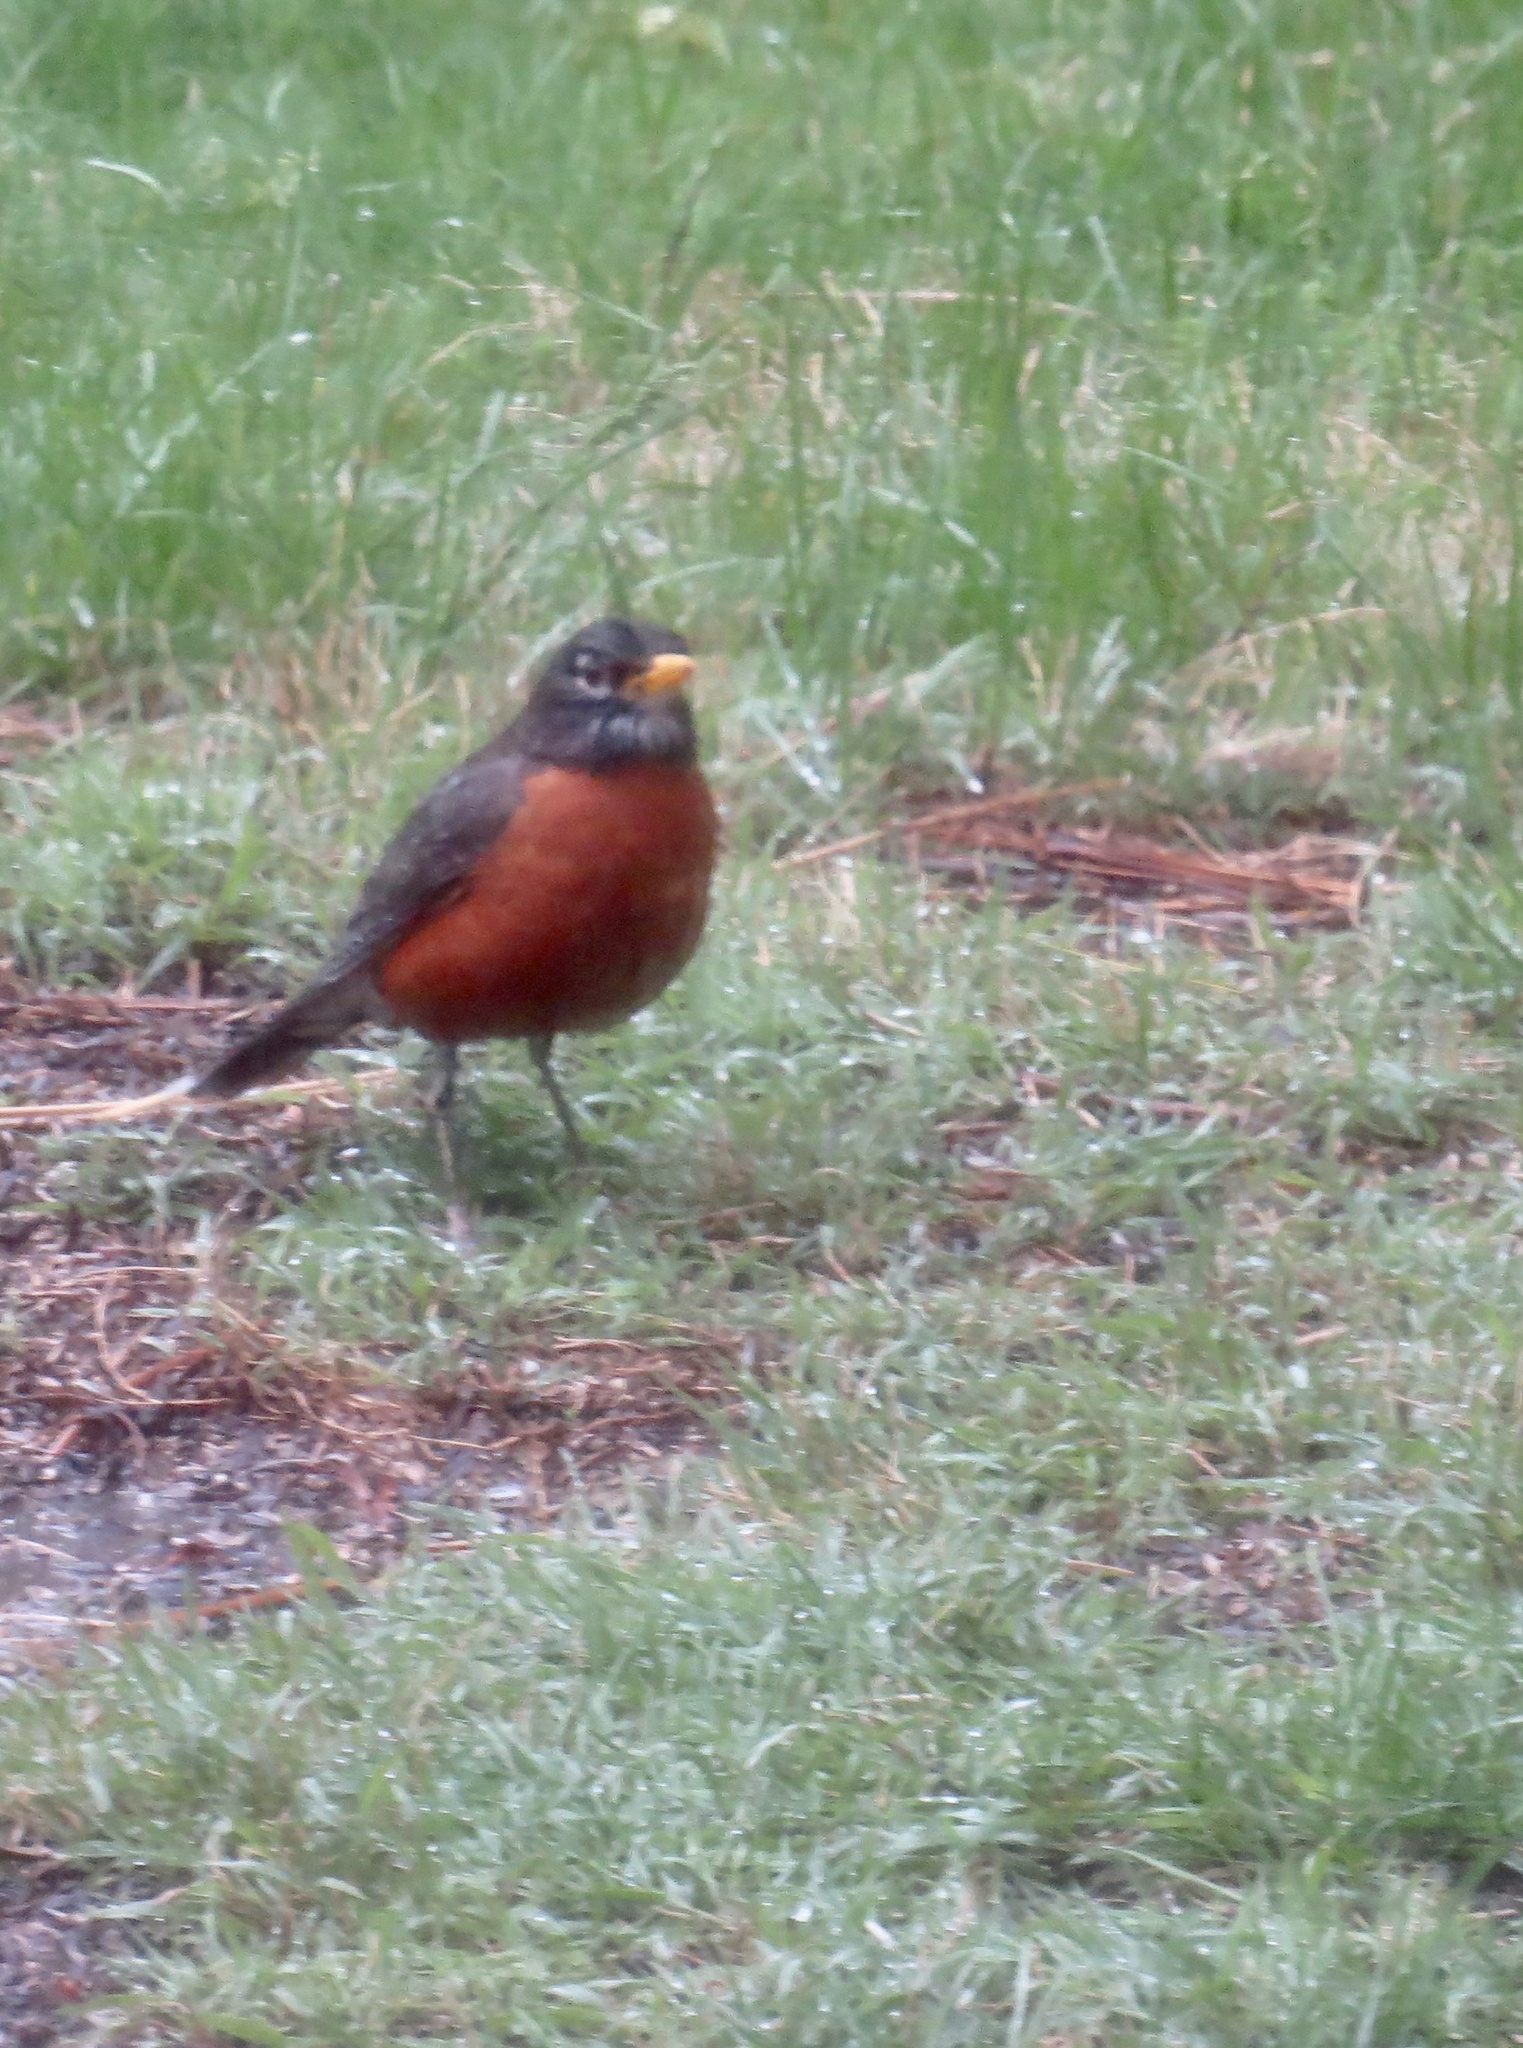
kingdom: Animalia
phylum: Chordata
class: Aves
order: Passeriformes
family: Turdidae
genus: Turdus
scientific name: Turdus migratorius
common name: American robin
